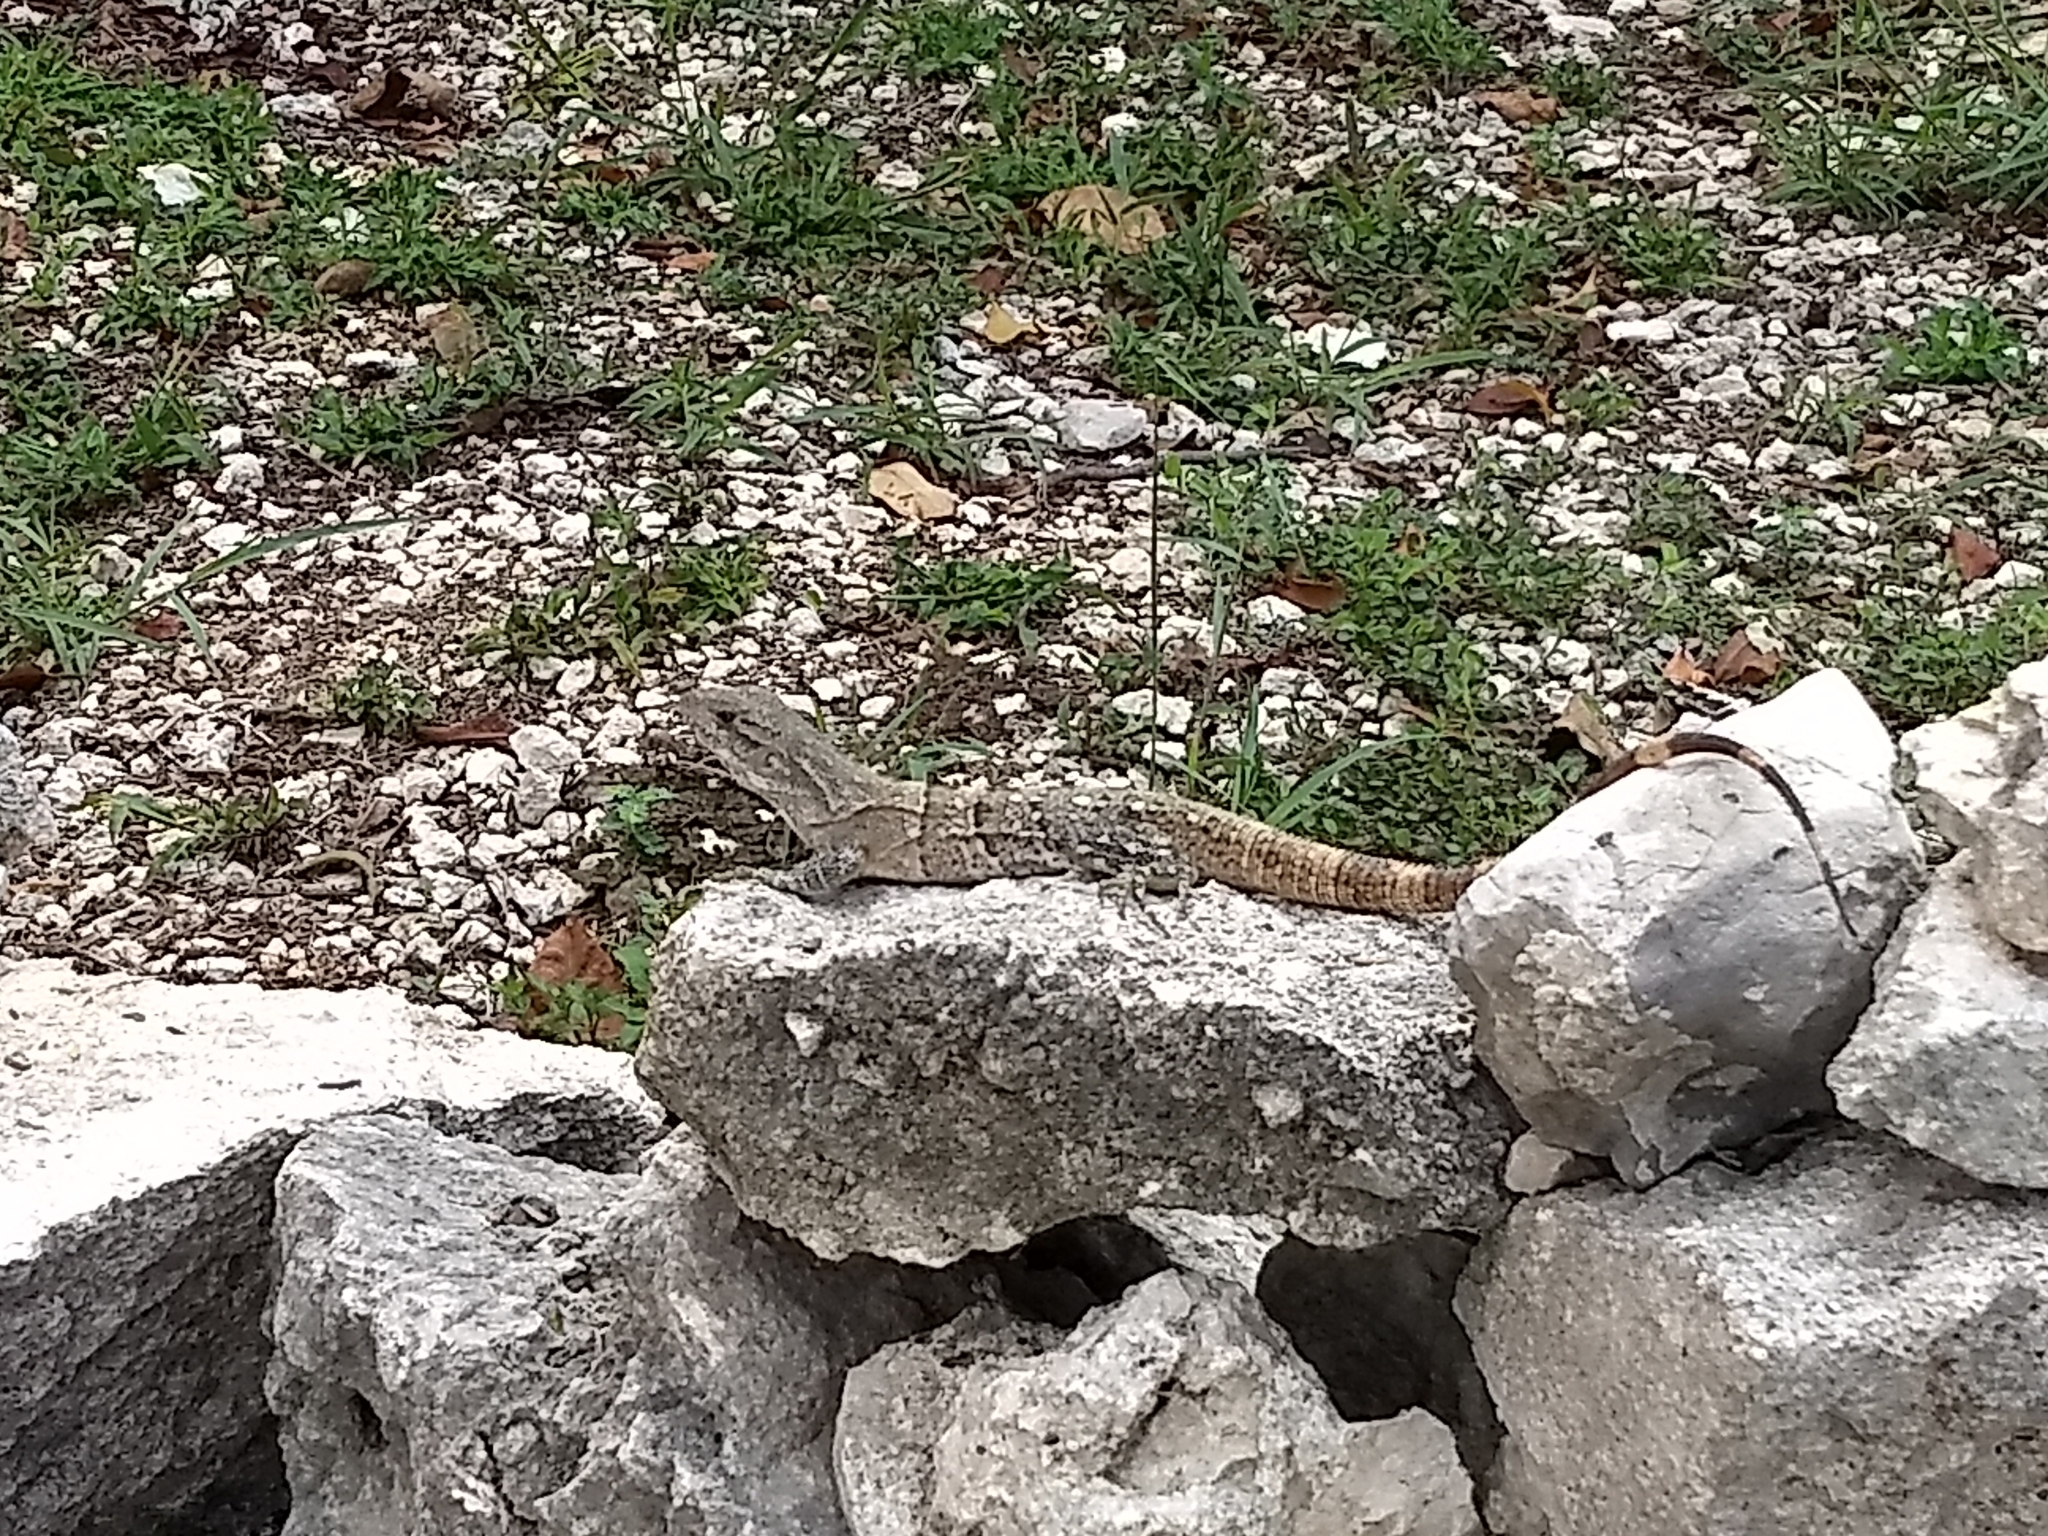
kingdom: Animalia
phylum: Chordata
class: Squamata
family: Iguanidae
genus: Ctenosaura
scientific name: Ctenosaura similis
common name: Black spiny-tailed iguana
